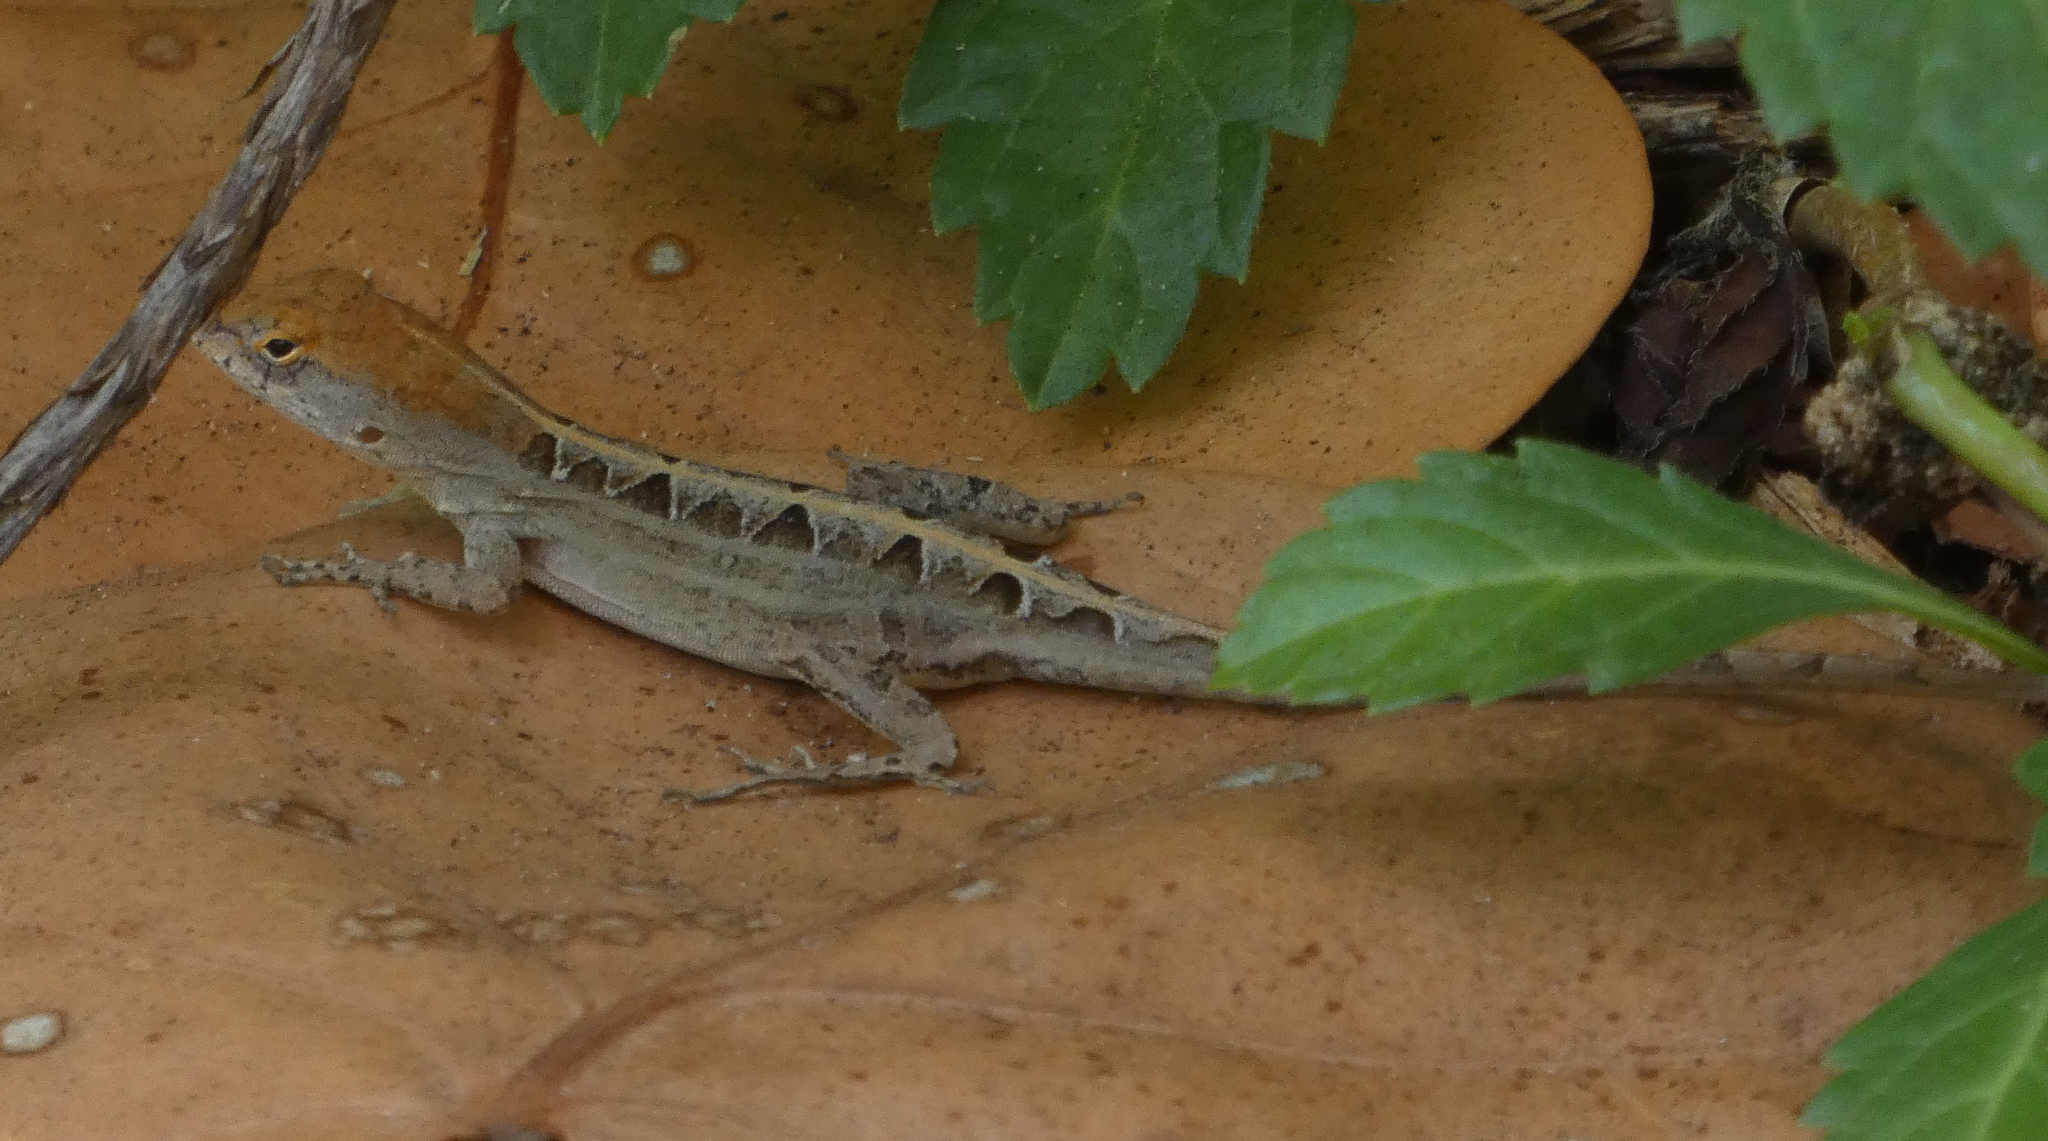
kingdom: Animalia
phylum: Chordata
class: Squamata
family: Dactyloidae
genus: Anolis
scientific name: Anolis sagrei
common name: Brown anole
